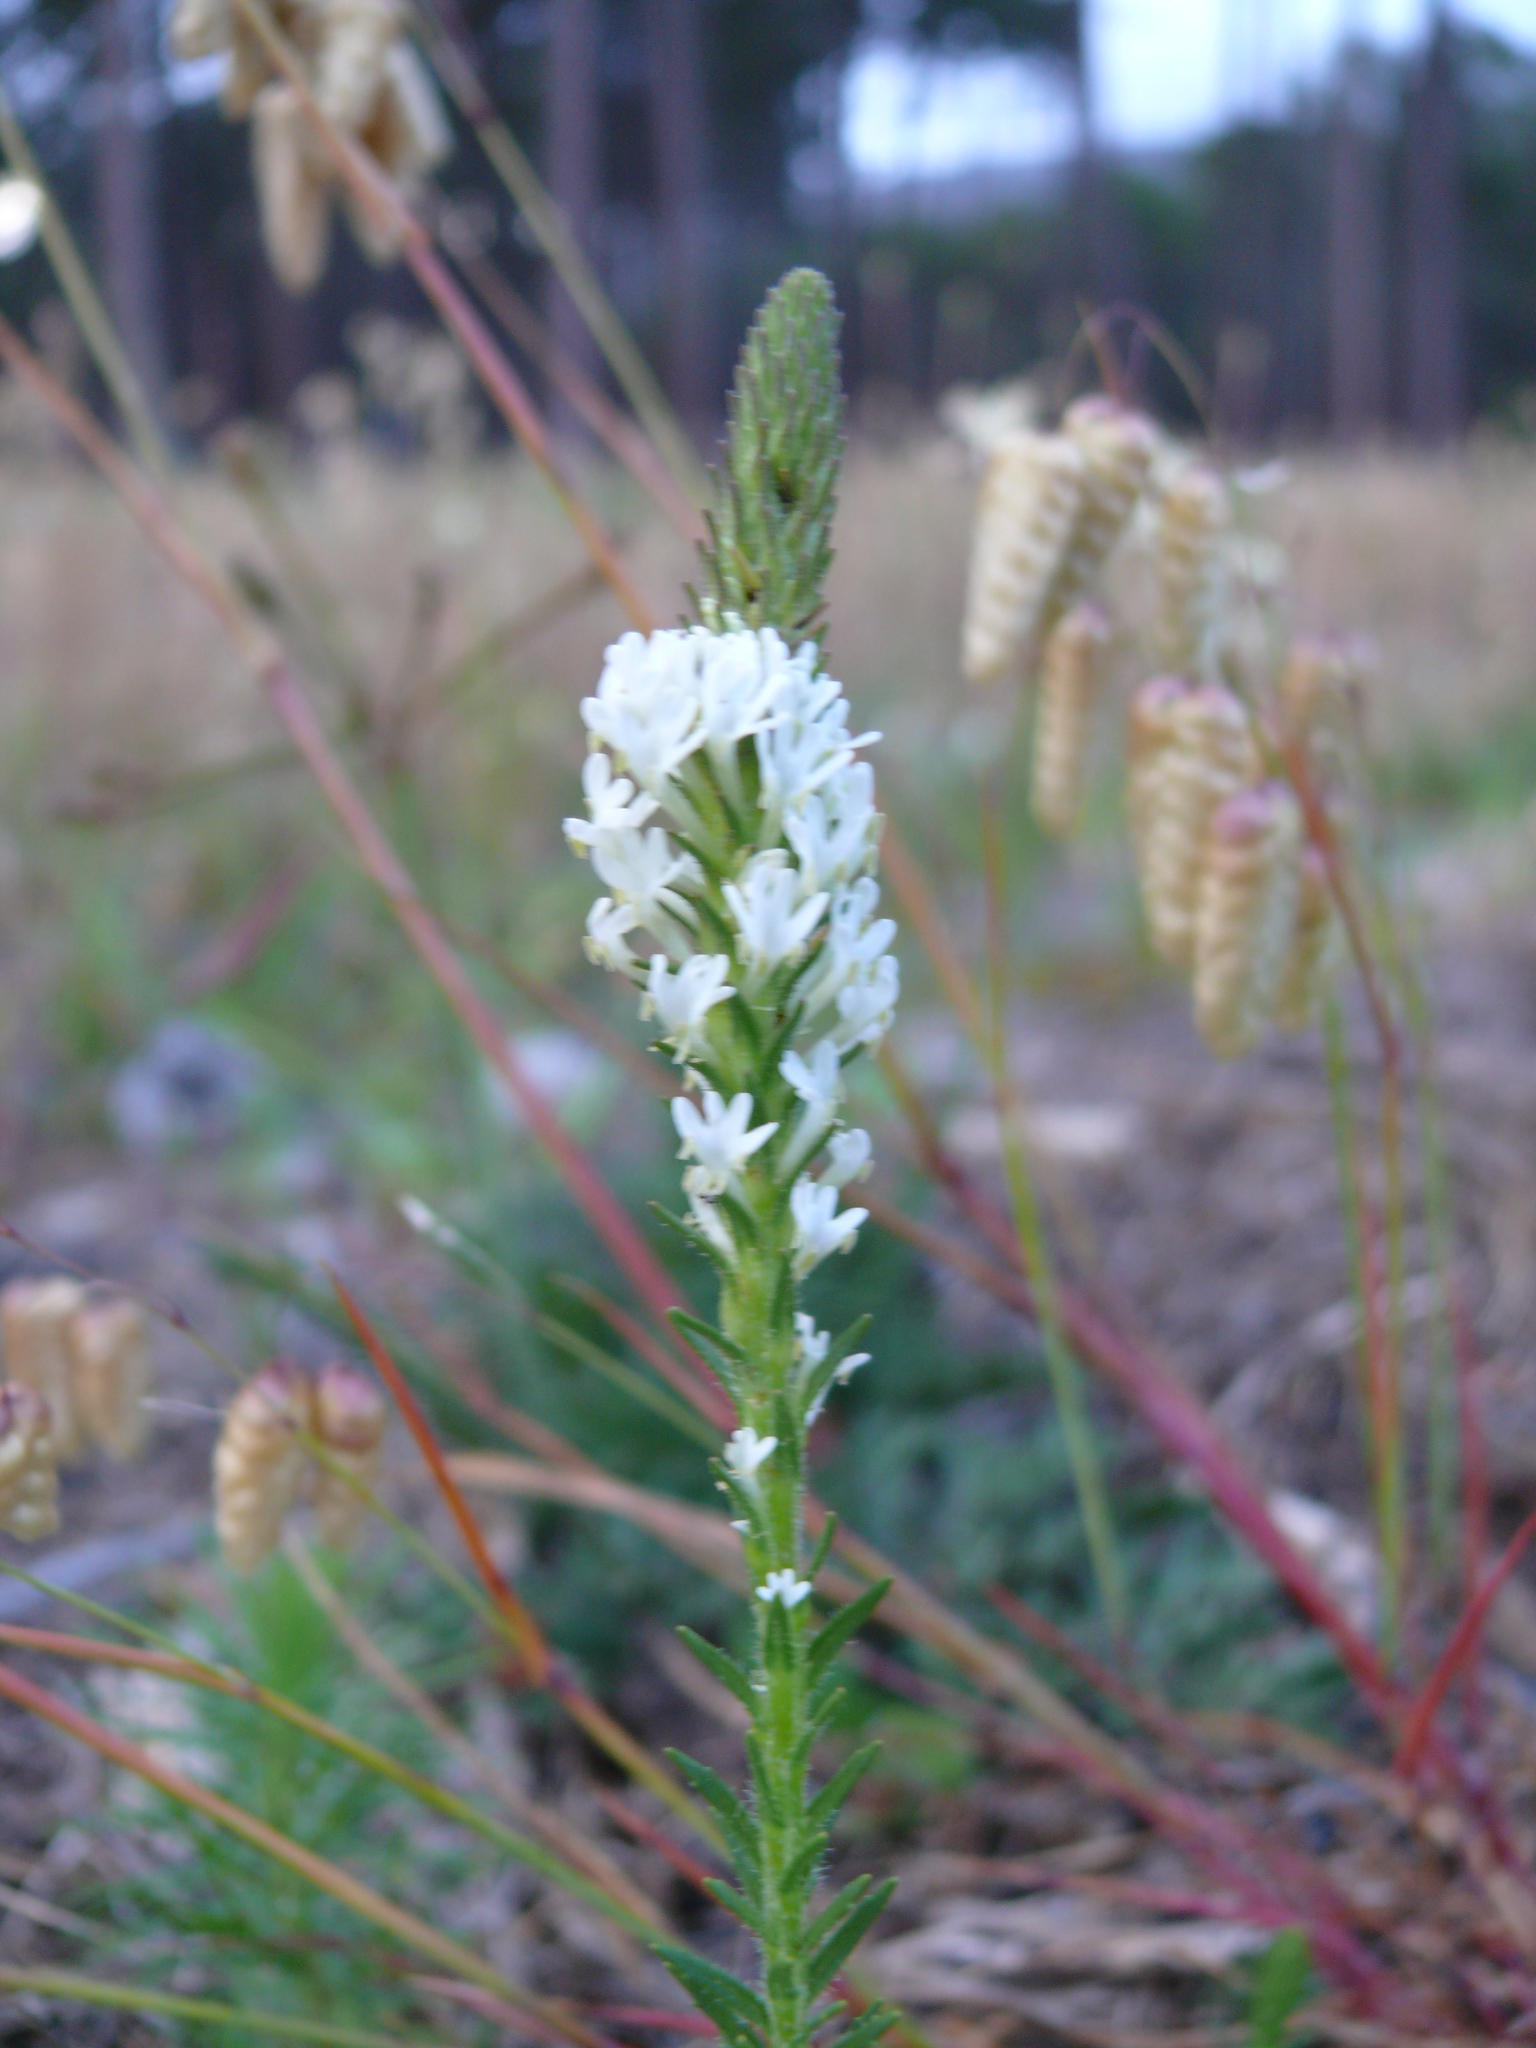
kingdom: Plantae
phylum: Tracheophyta
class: Magnoliopsida
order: Lamiales
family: Scrophulariaceae
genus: Dischisma
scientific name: Dischisma ciliatum
